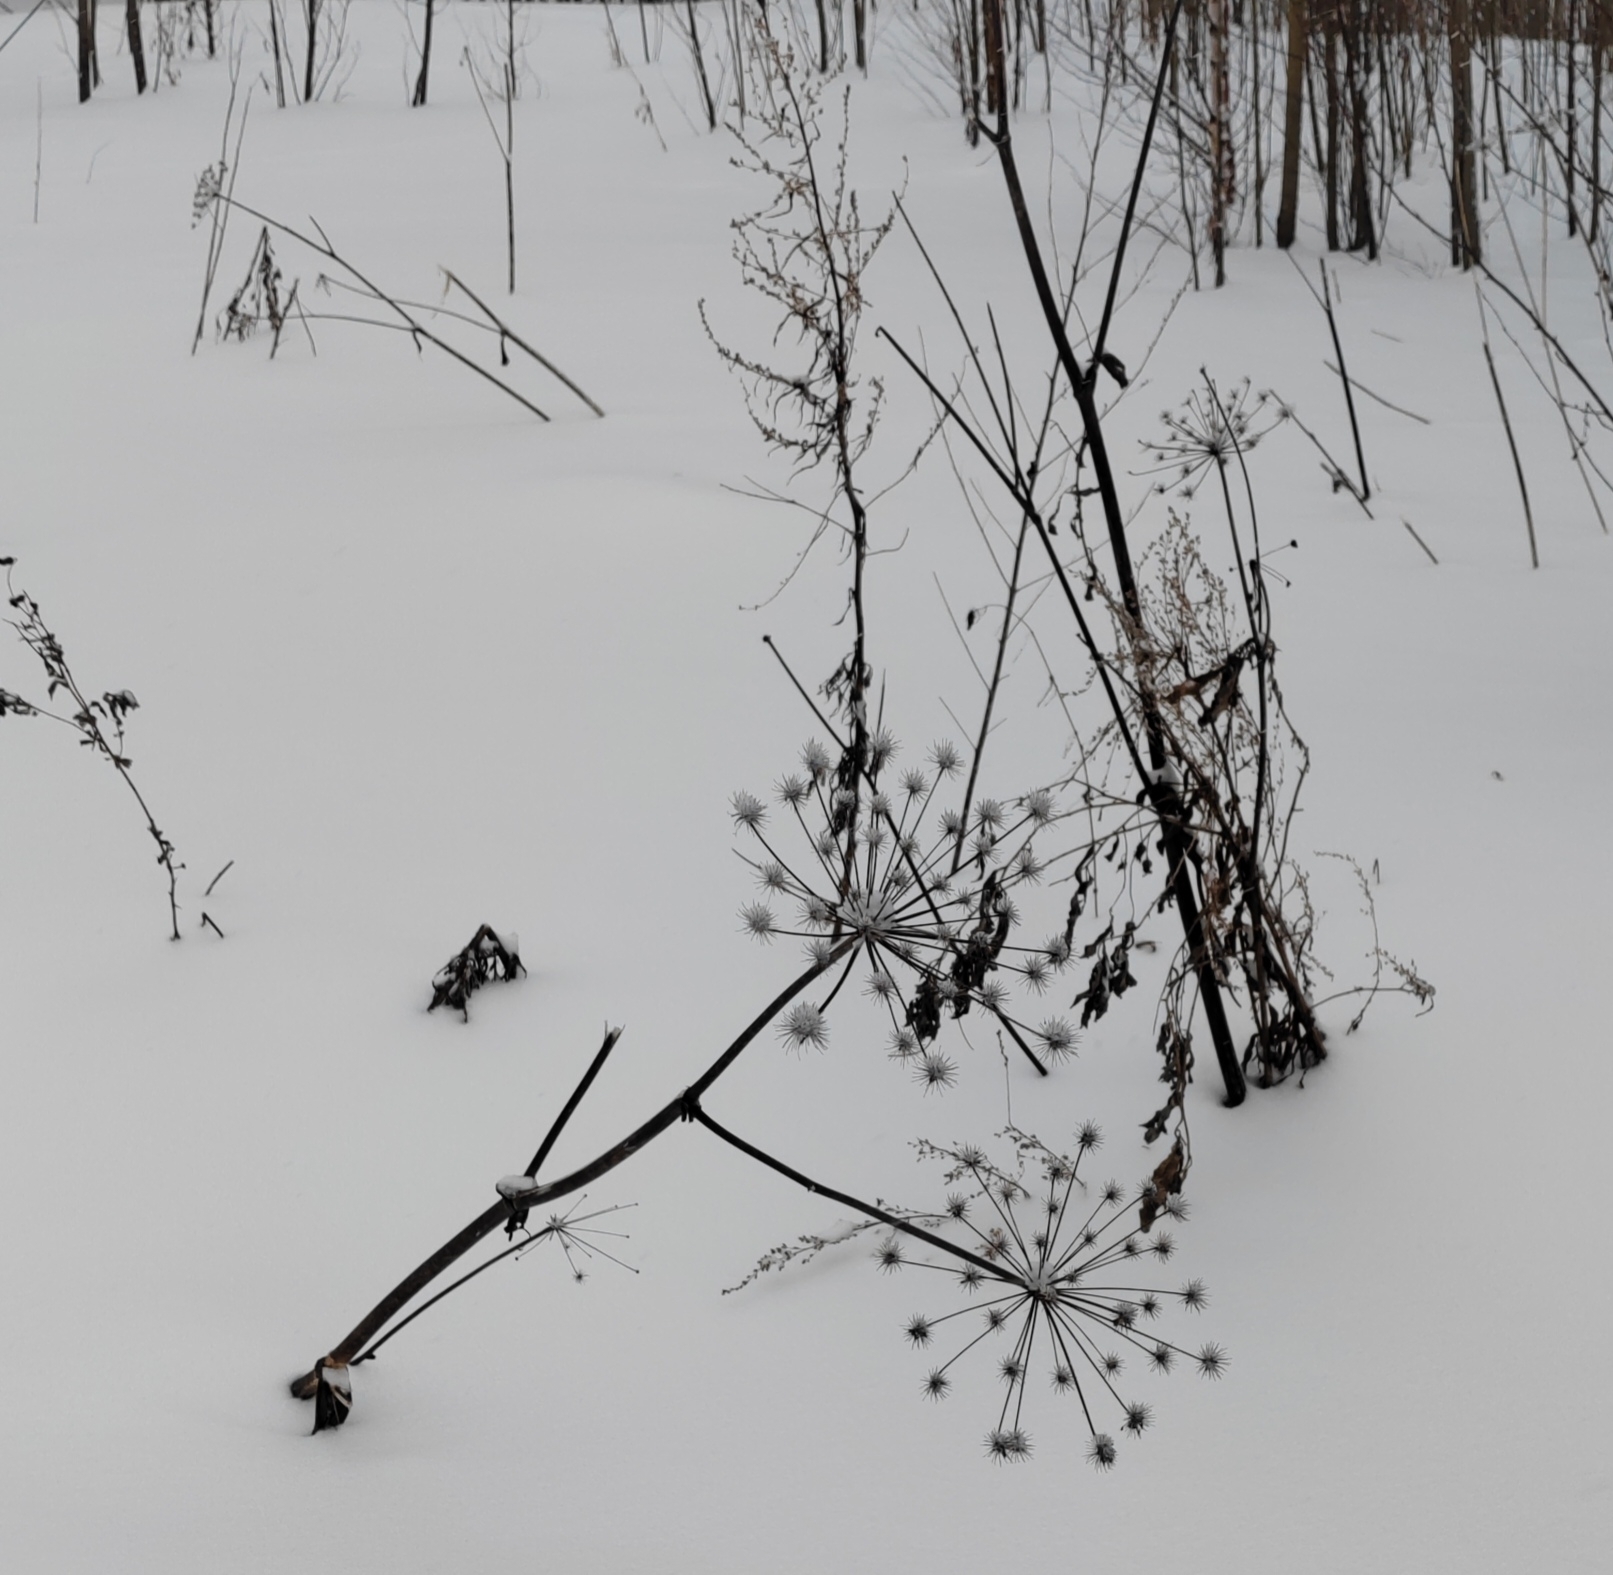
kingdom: Plantae
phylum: Tracheophyta
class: Magnoliopsida
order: Apiales
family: Apiaceae
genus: Angelica
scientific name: Angelica sylvestris
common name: Wild angelica
